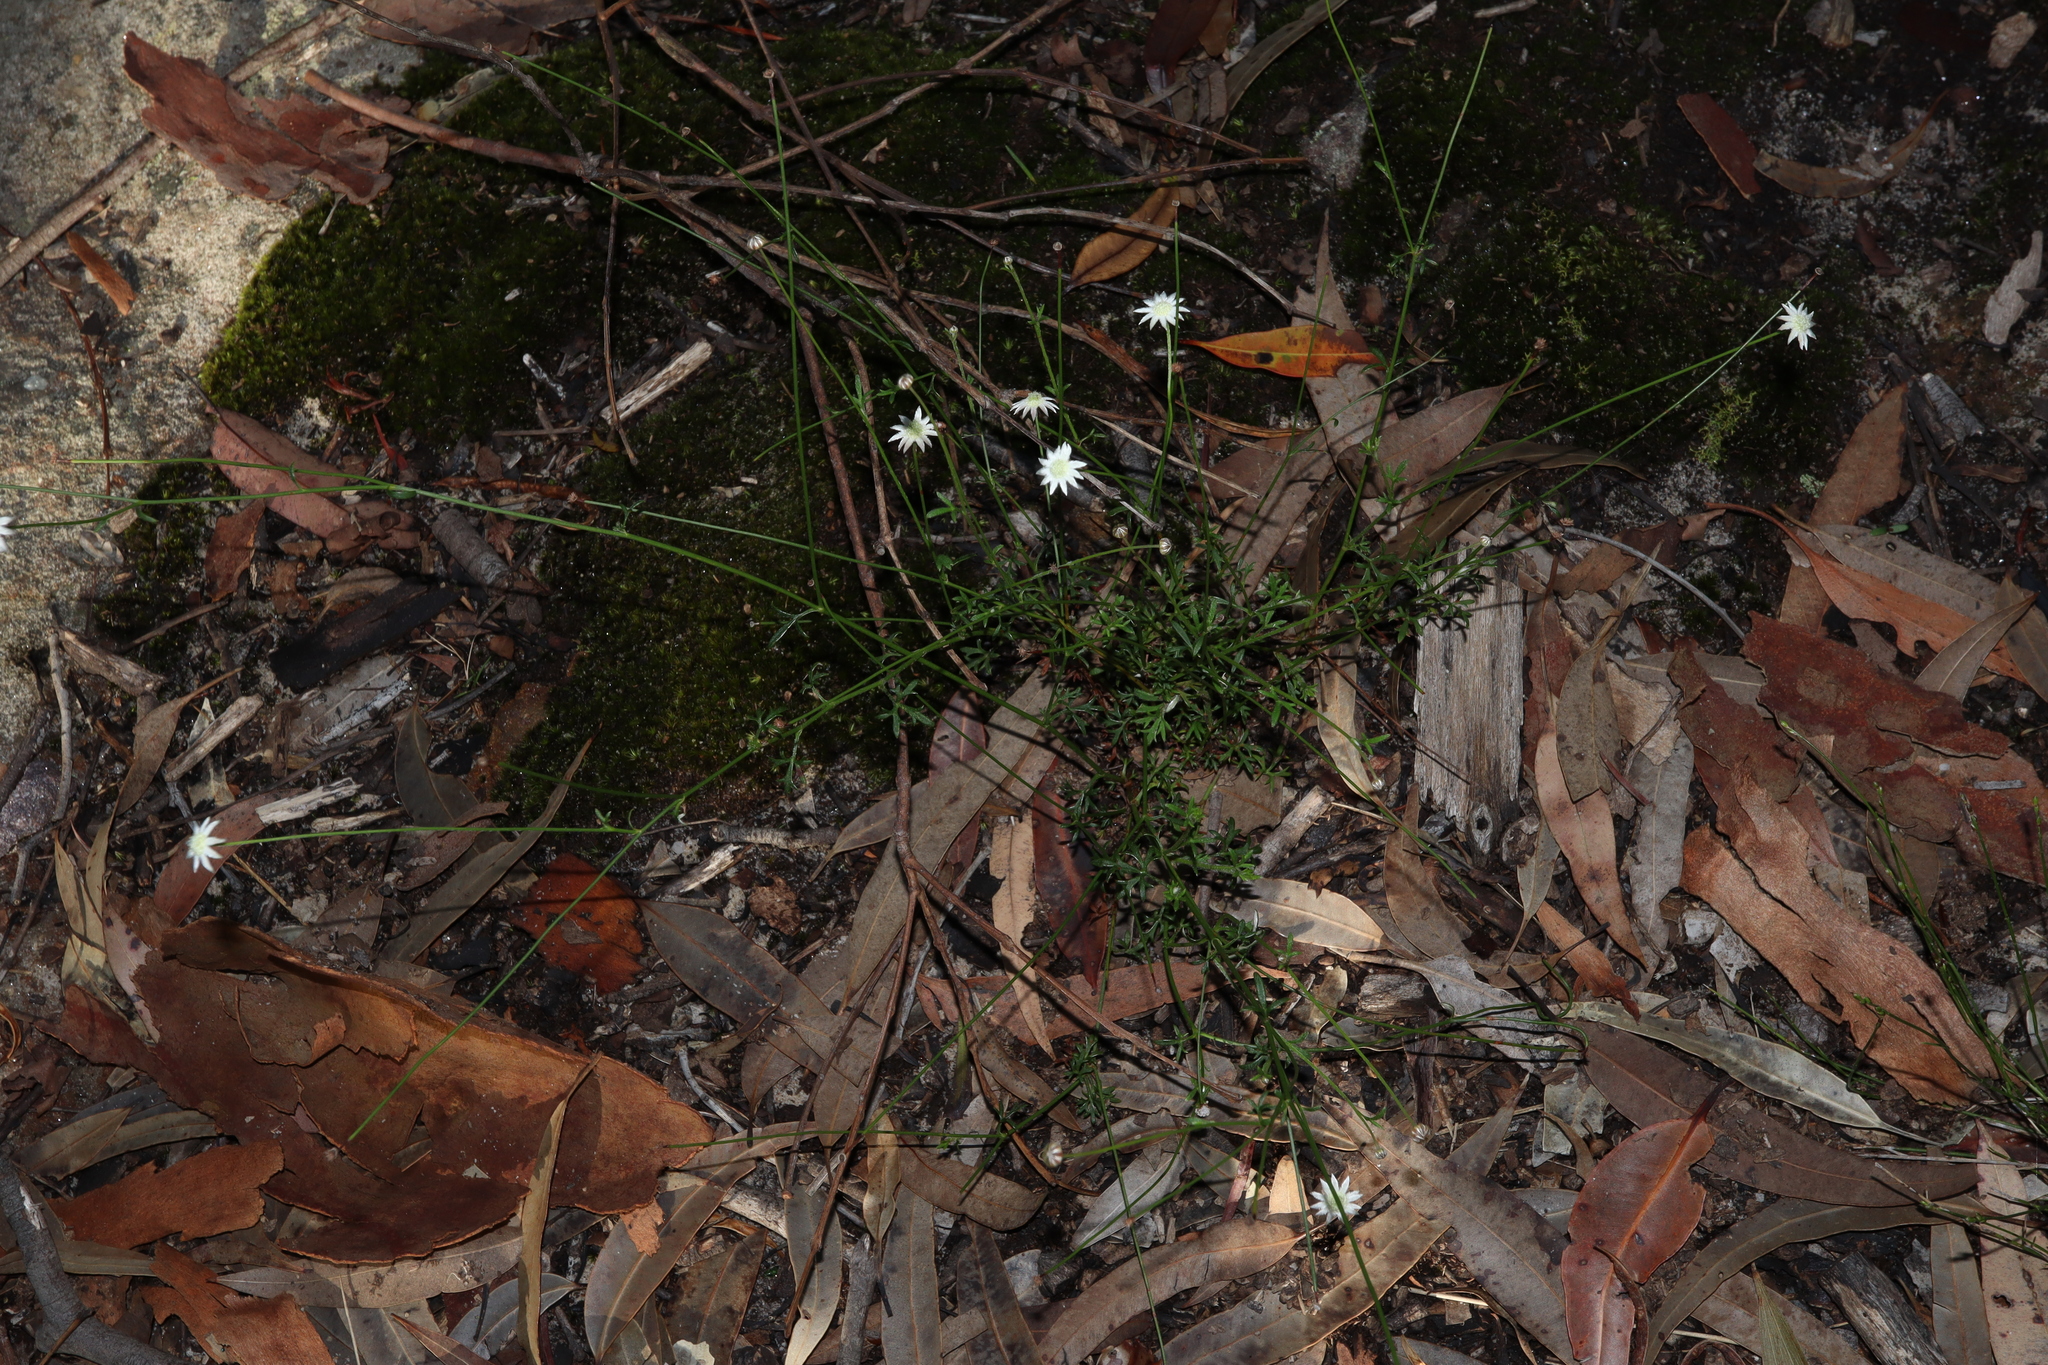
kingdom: Plantae
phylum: Tracheophyta
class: Magnoliopsida
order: Apiales
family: Apiaceae
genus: Actinotus
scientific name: Actinotus minor
